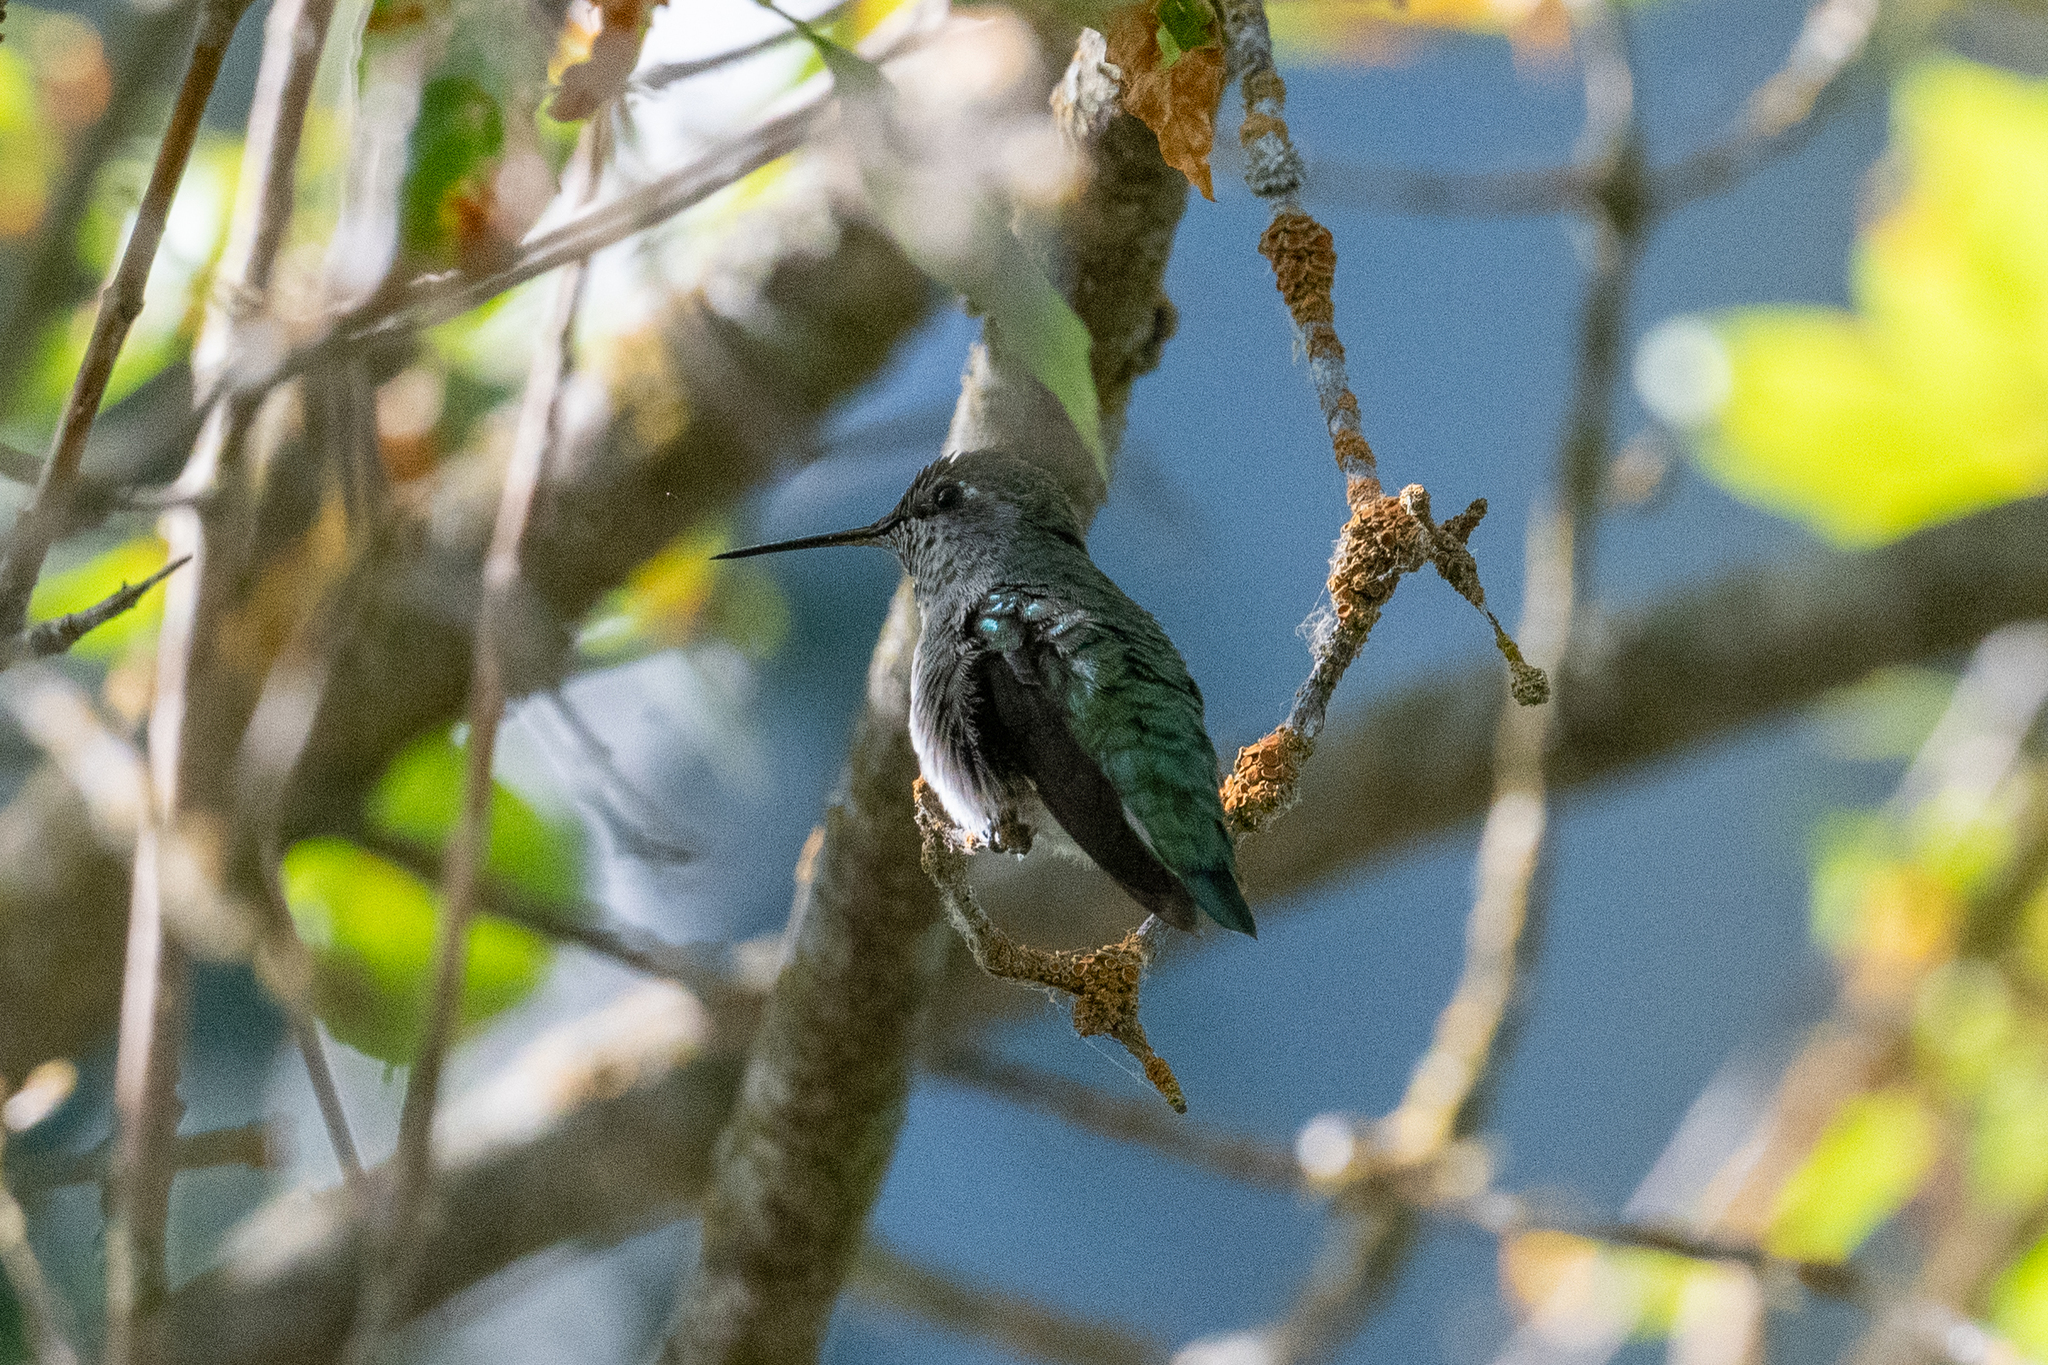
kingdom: Animalia
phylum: Chordata
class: Aves
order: Apodiformes
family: Trochilidae
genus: Calypte
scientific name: Calypte anna
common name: Anna's hummingbird
